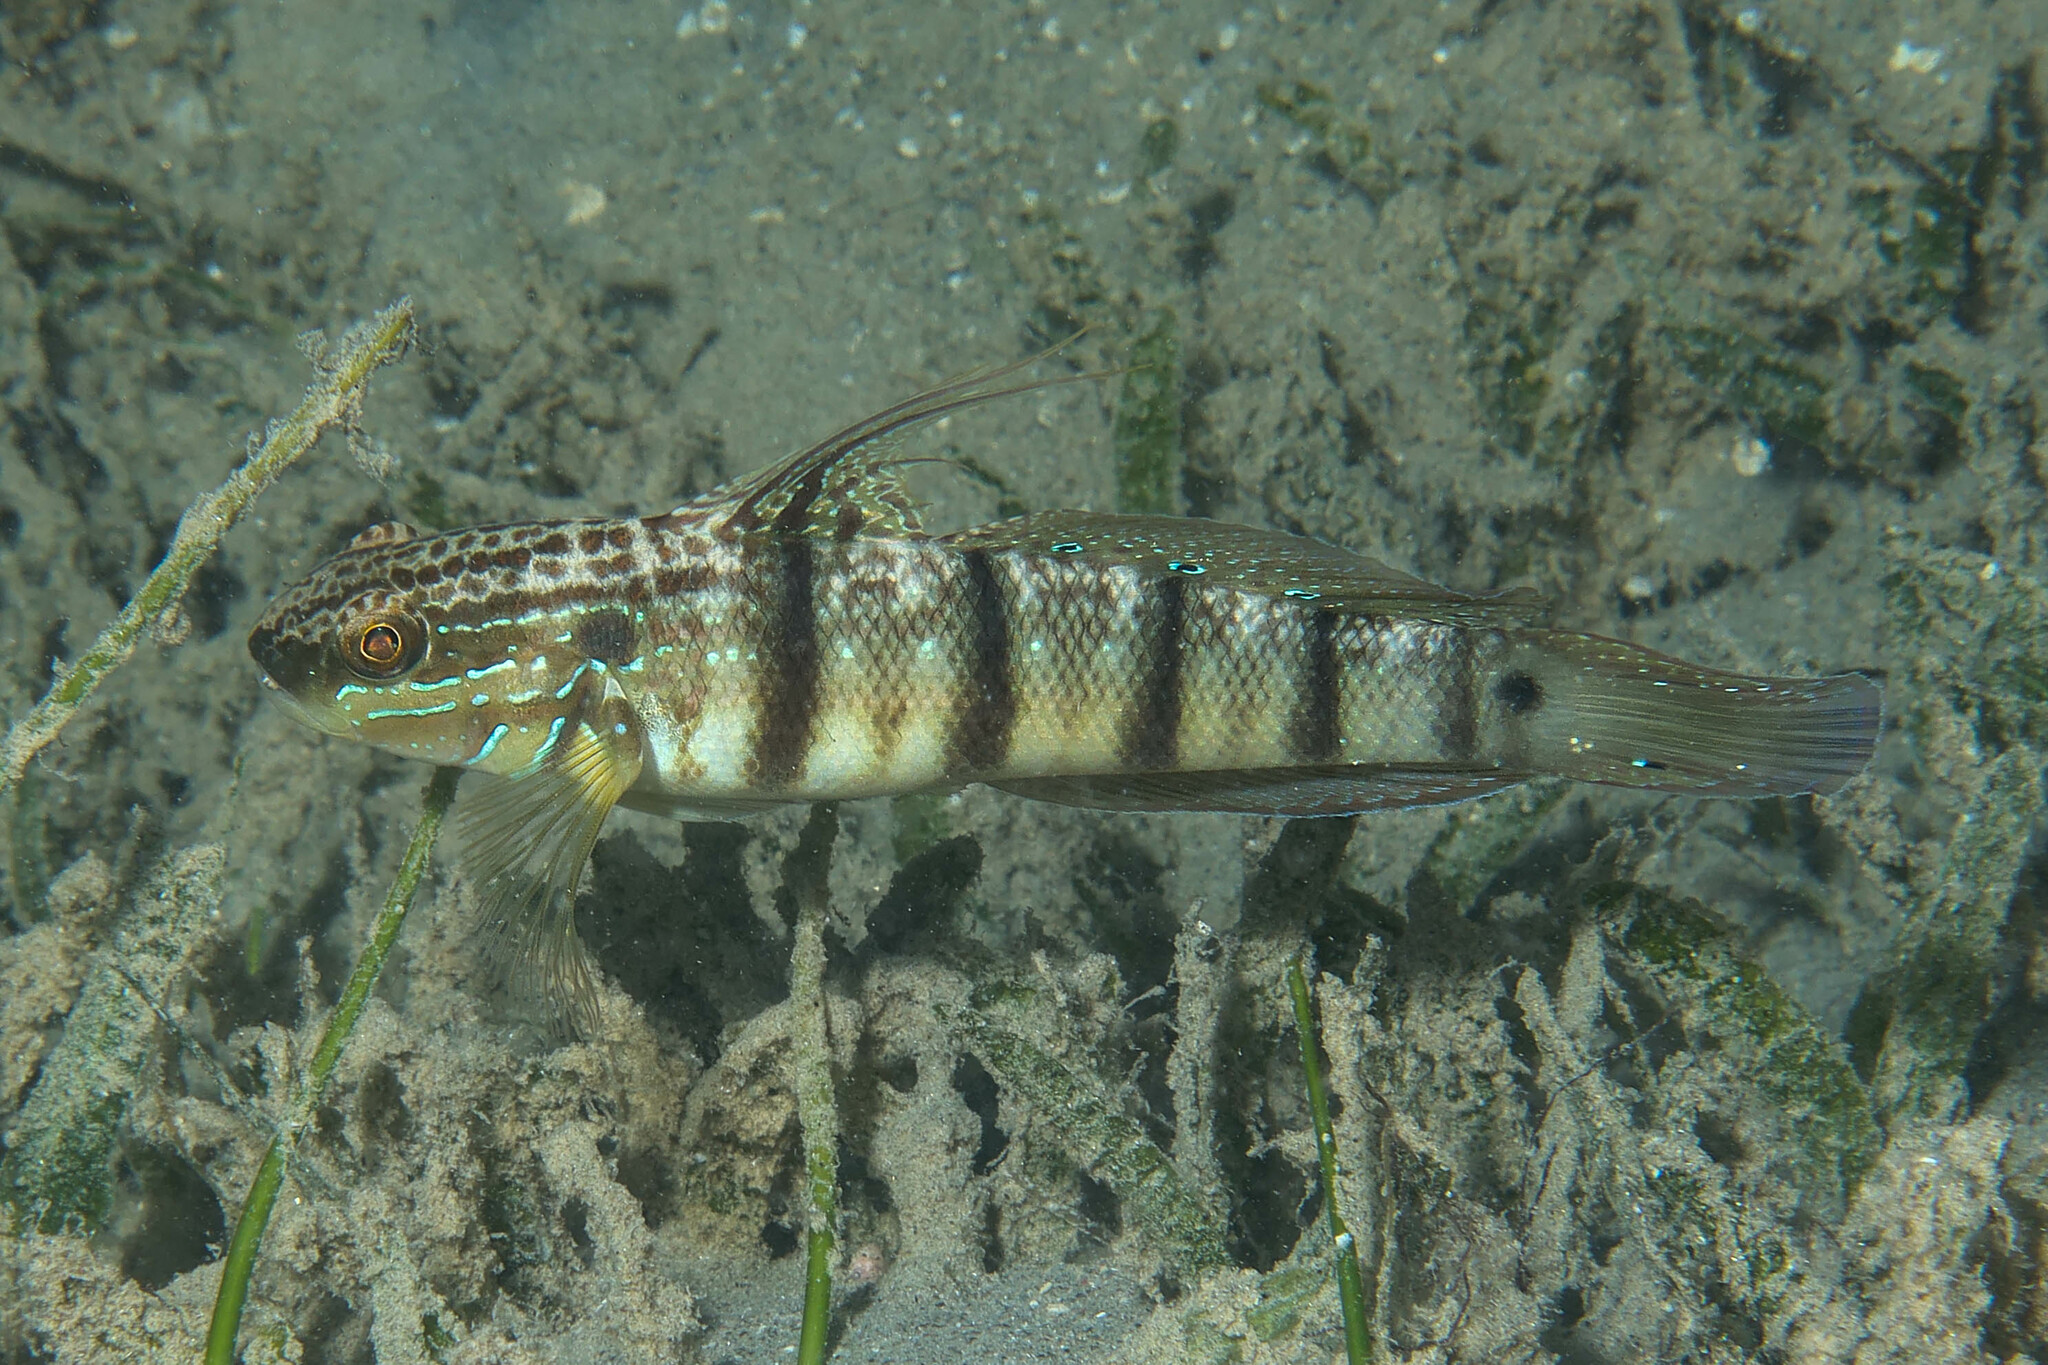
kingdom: Animalia
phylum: Chordata
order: Perciformes
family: Gobiidae
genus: Amblygobius
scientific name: Amblygobius albimaculatus
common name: Butterfly goby
